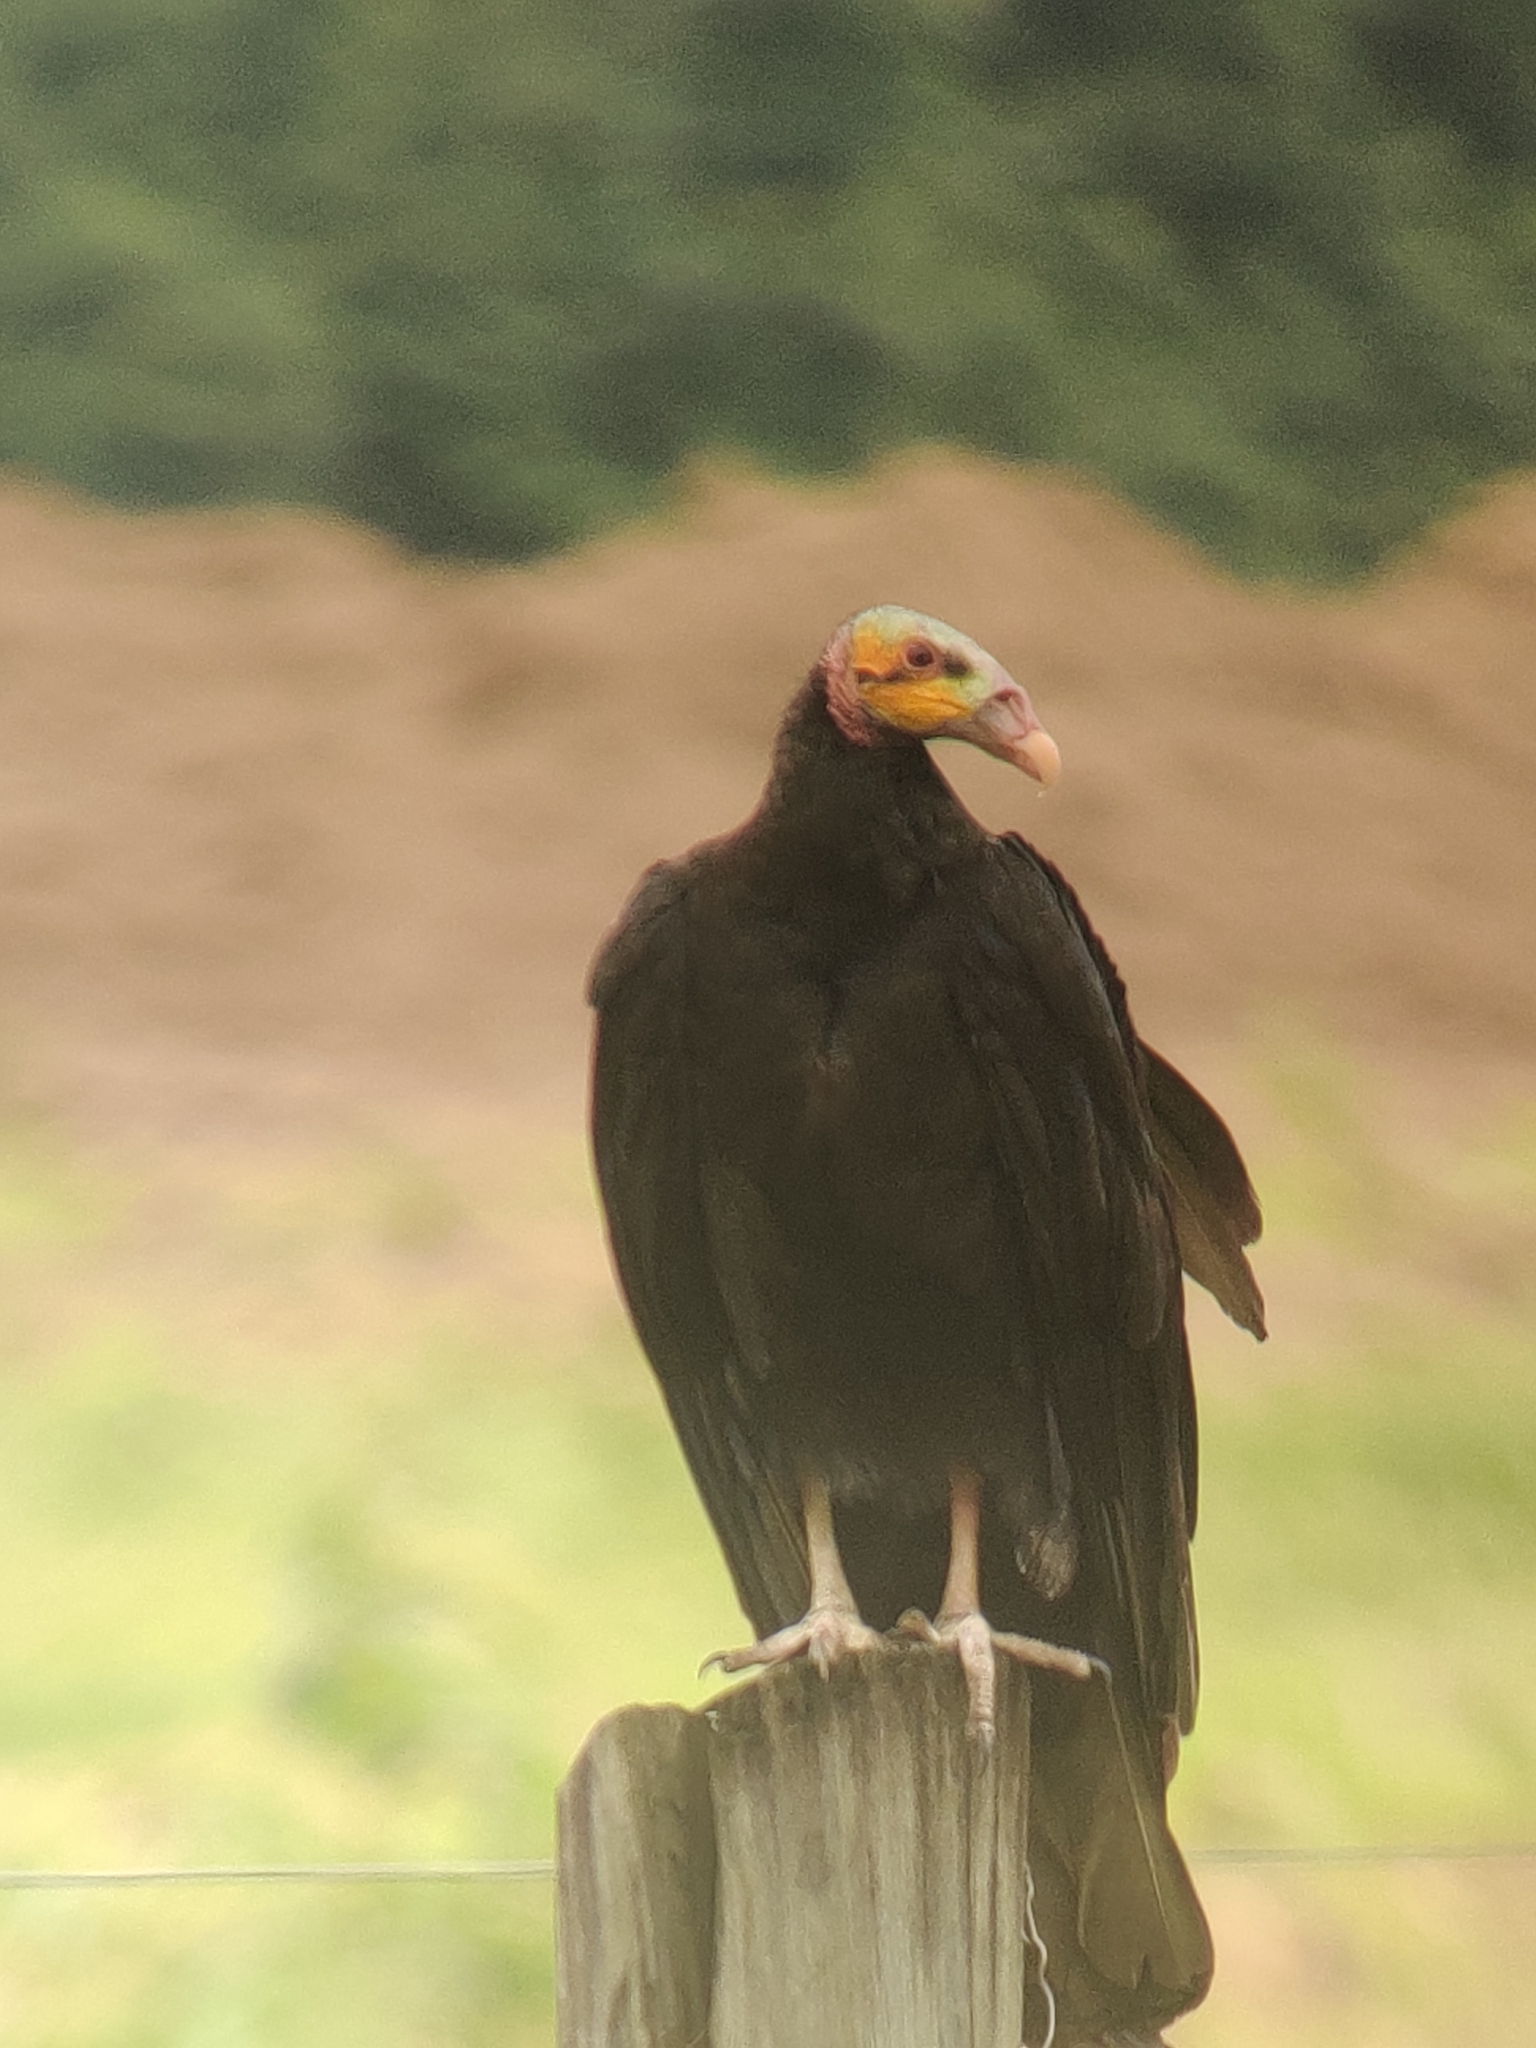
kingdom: Animalia
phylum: Chordata
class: Aves
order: Accipitriformes
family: Cathartidae
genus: Cathartes
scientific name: Cathartes burrovianus
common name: Lesser yellow-headed vulture
